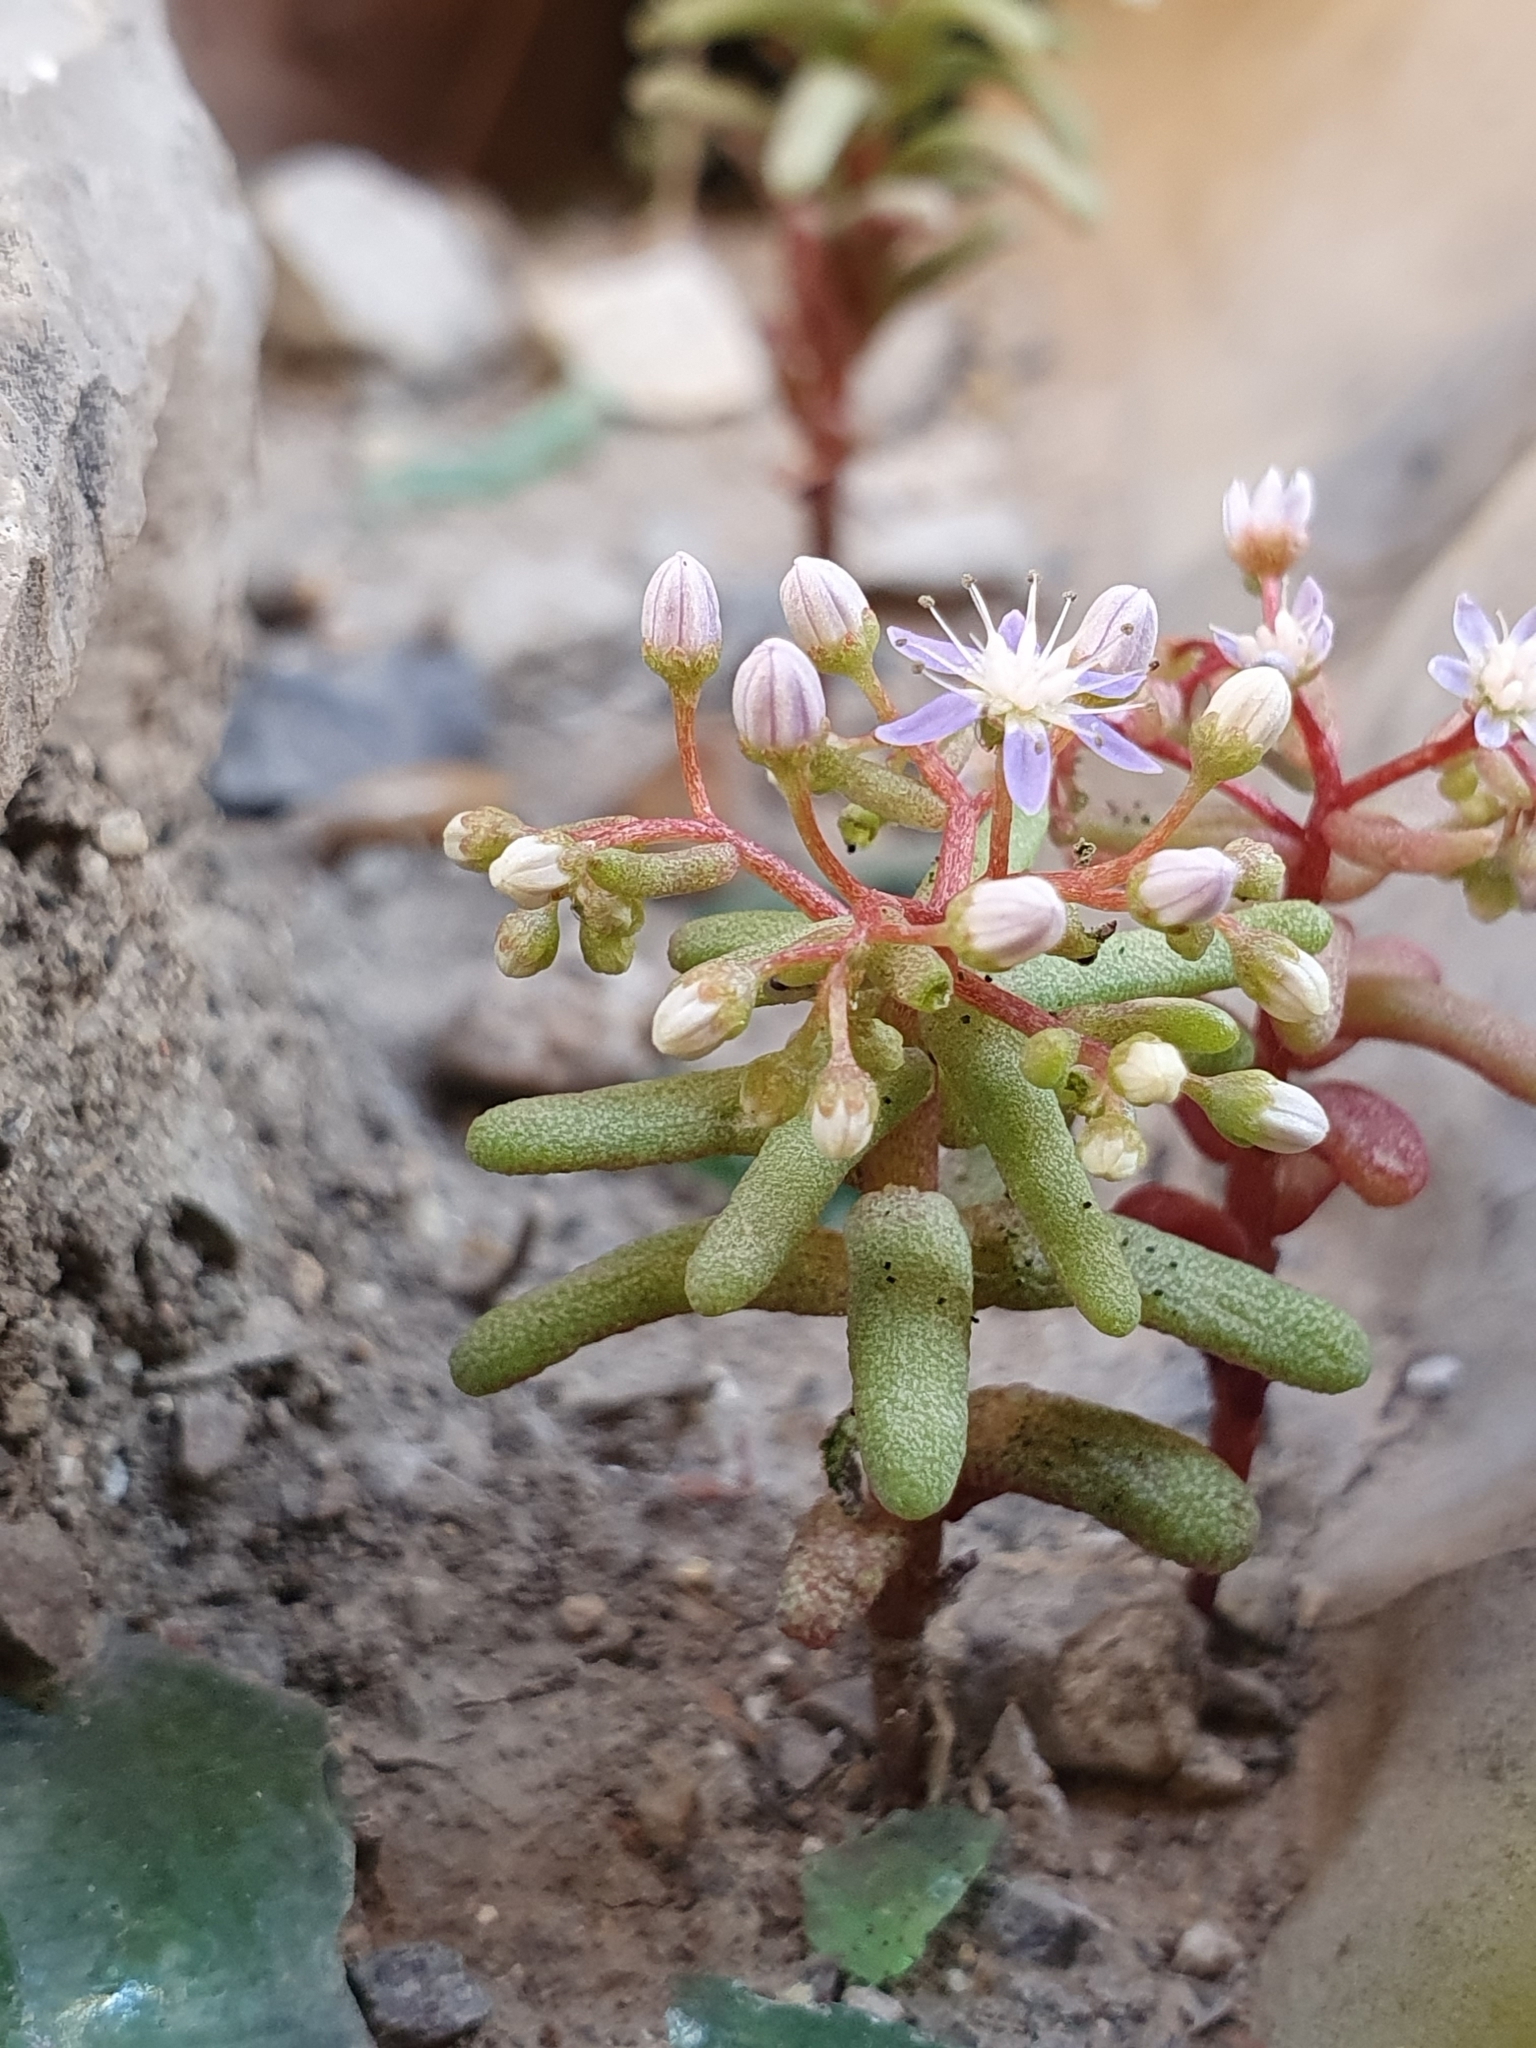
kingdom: Plantae
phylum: Tracheophyta
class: Magnoliopsida
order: Saxifragales
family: Crassulaceae
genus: Sedum
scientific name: Sedum caeruleum
